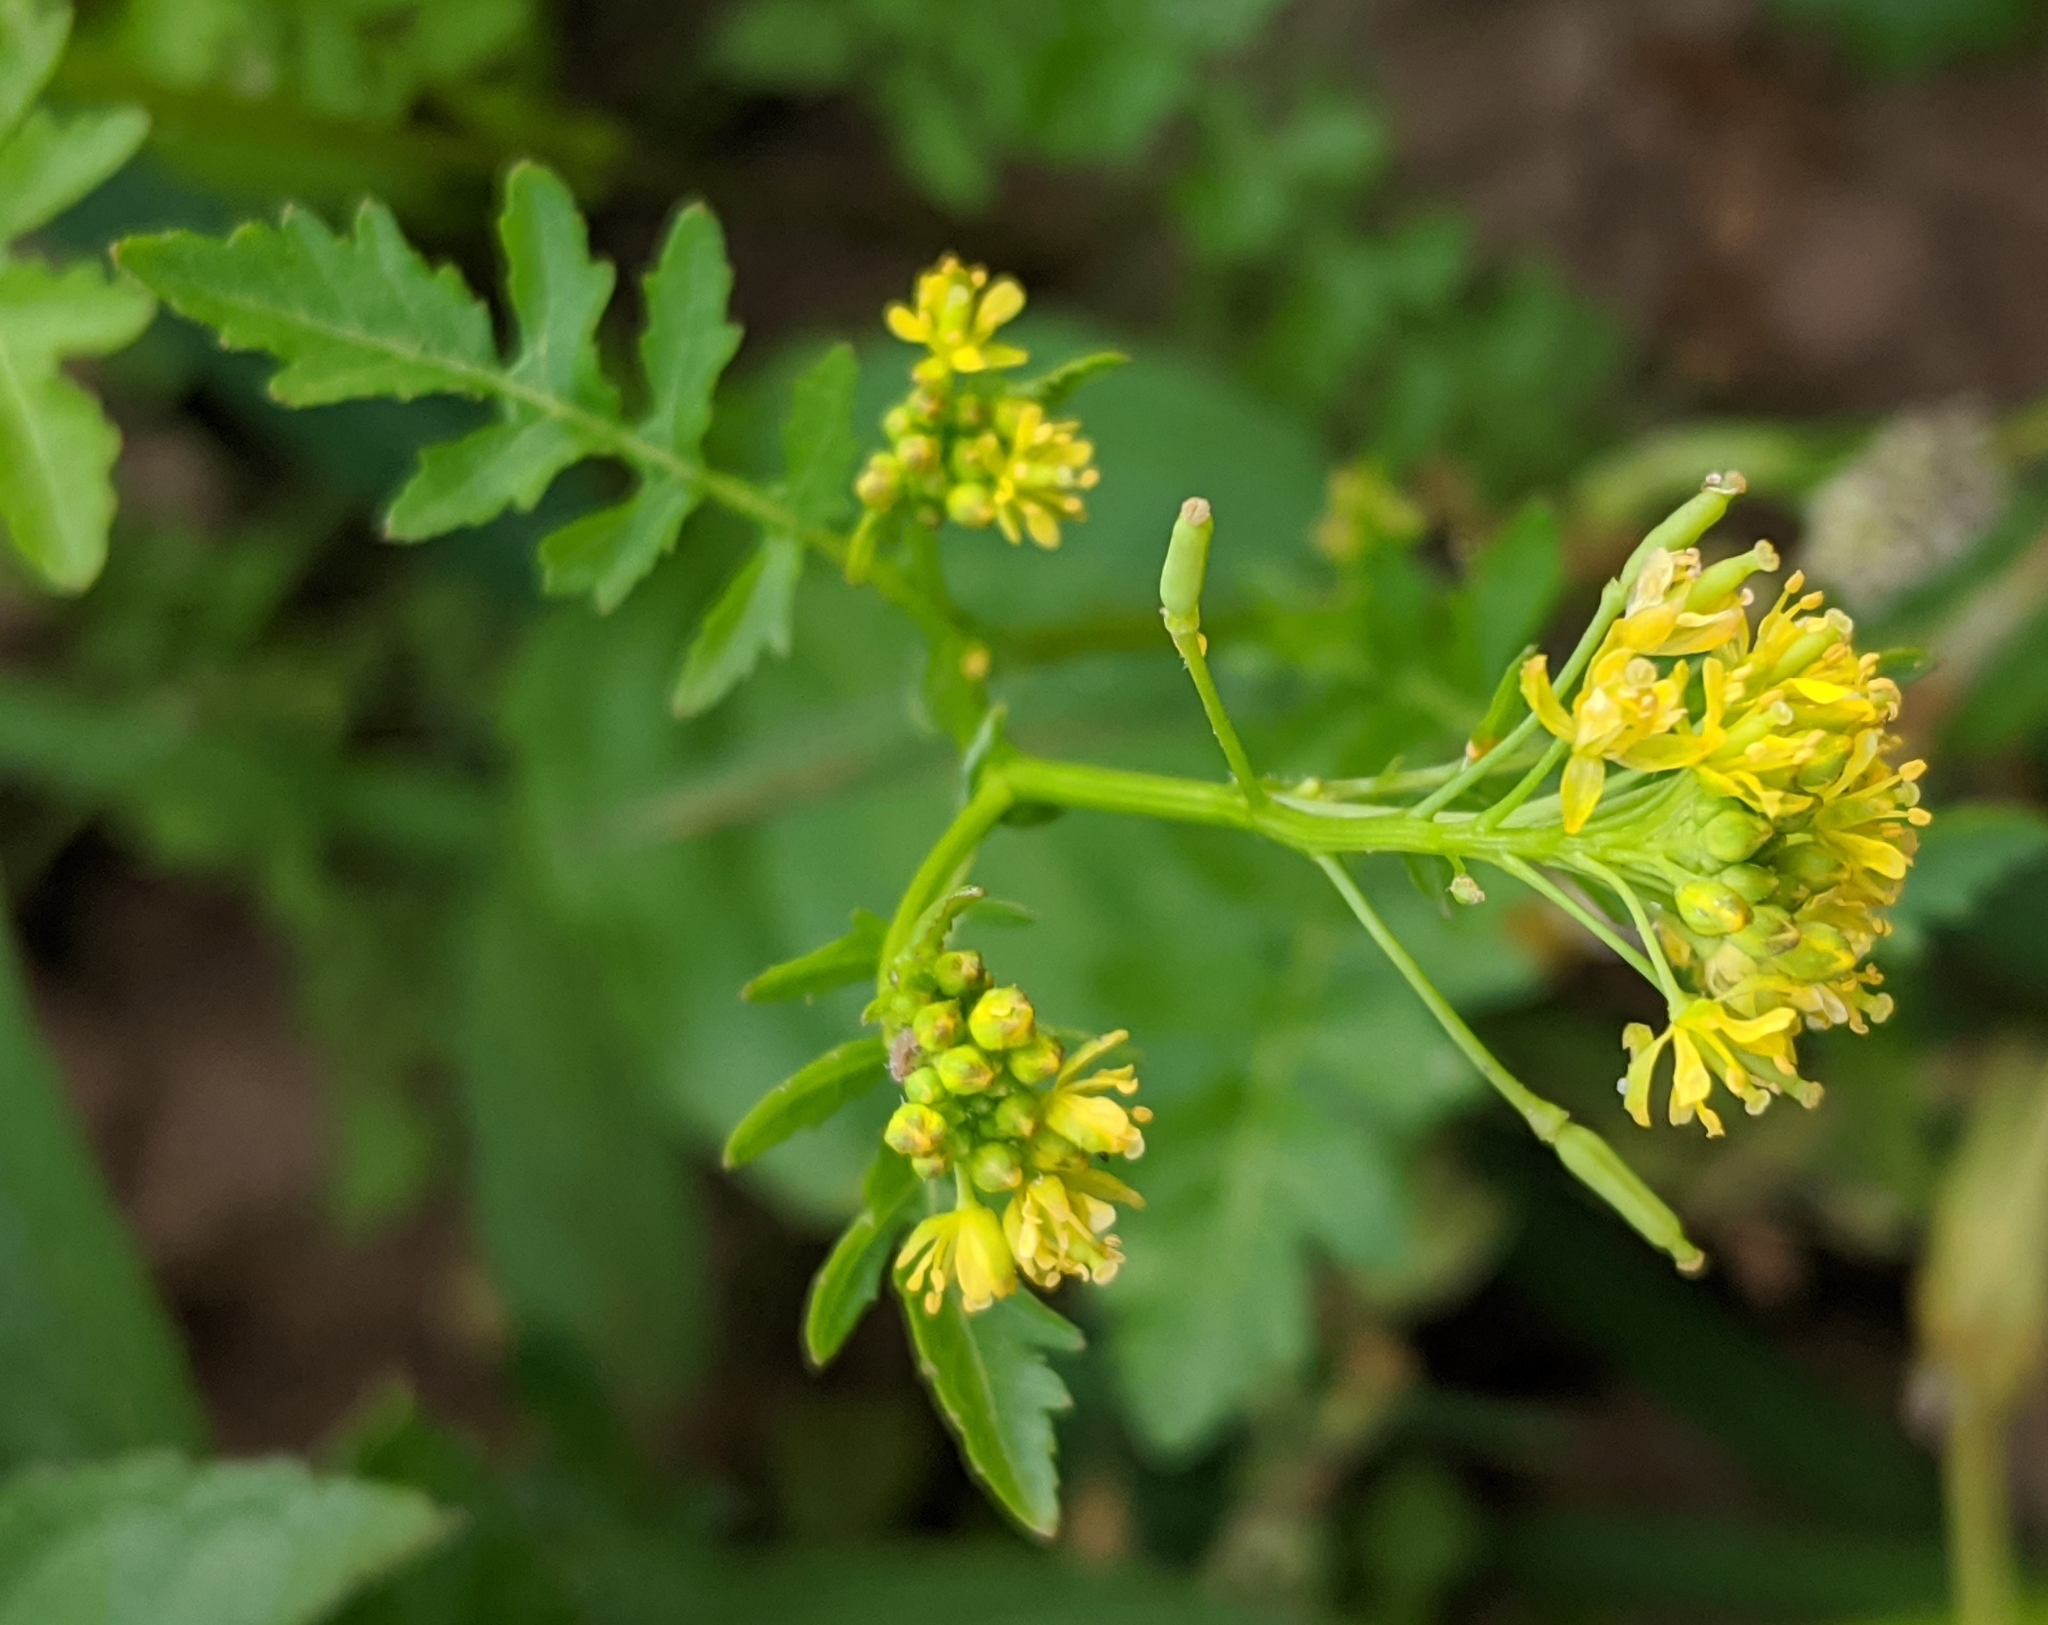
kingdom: Plantae
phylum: Tracheophyta
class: Magnoliopsida
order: Brassicales
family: Brassicaceae
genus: Rorippa
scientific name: Rorippa palustris
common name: Marsh yellow-cress
